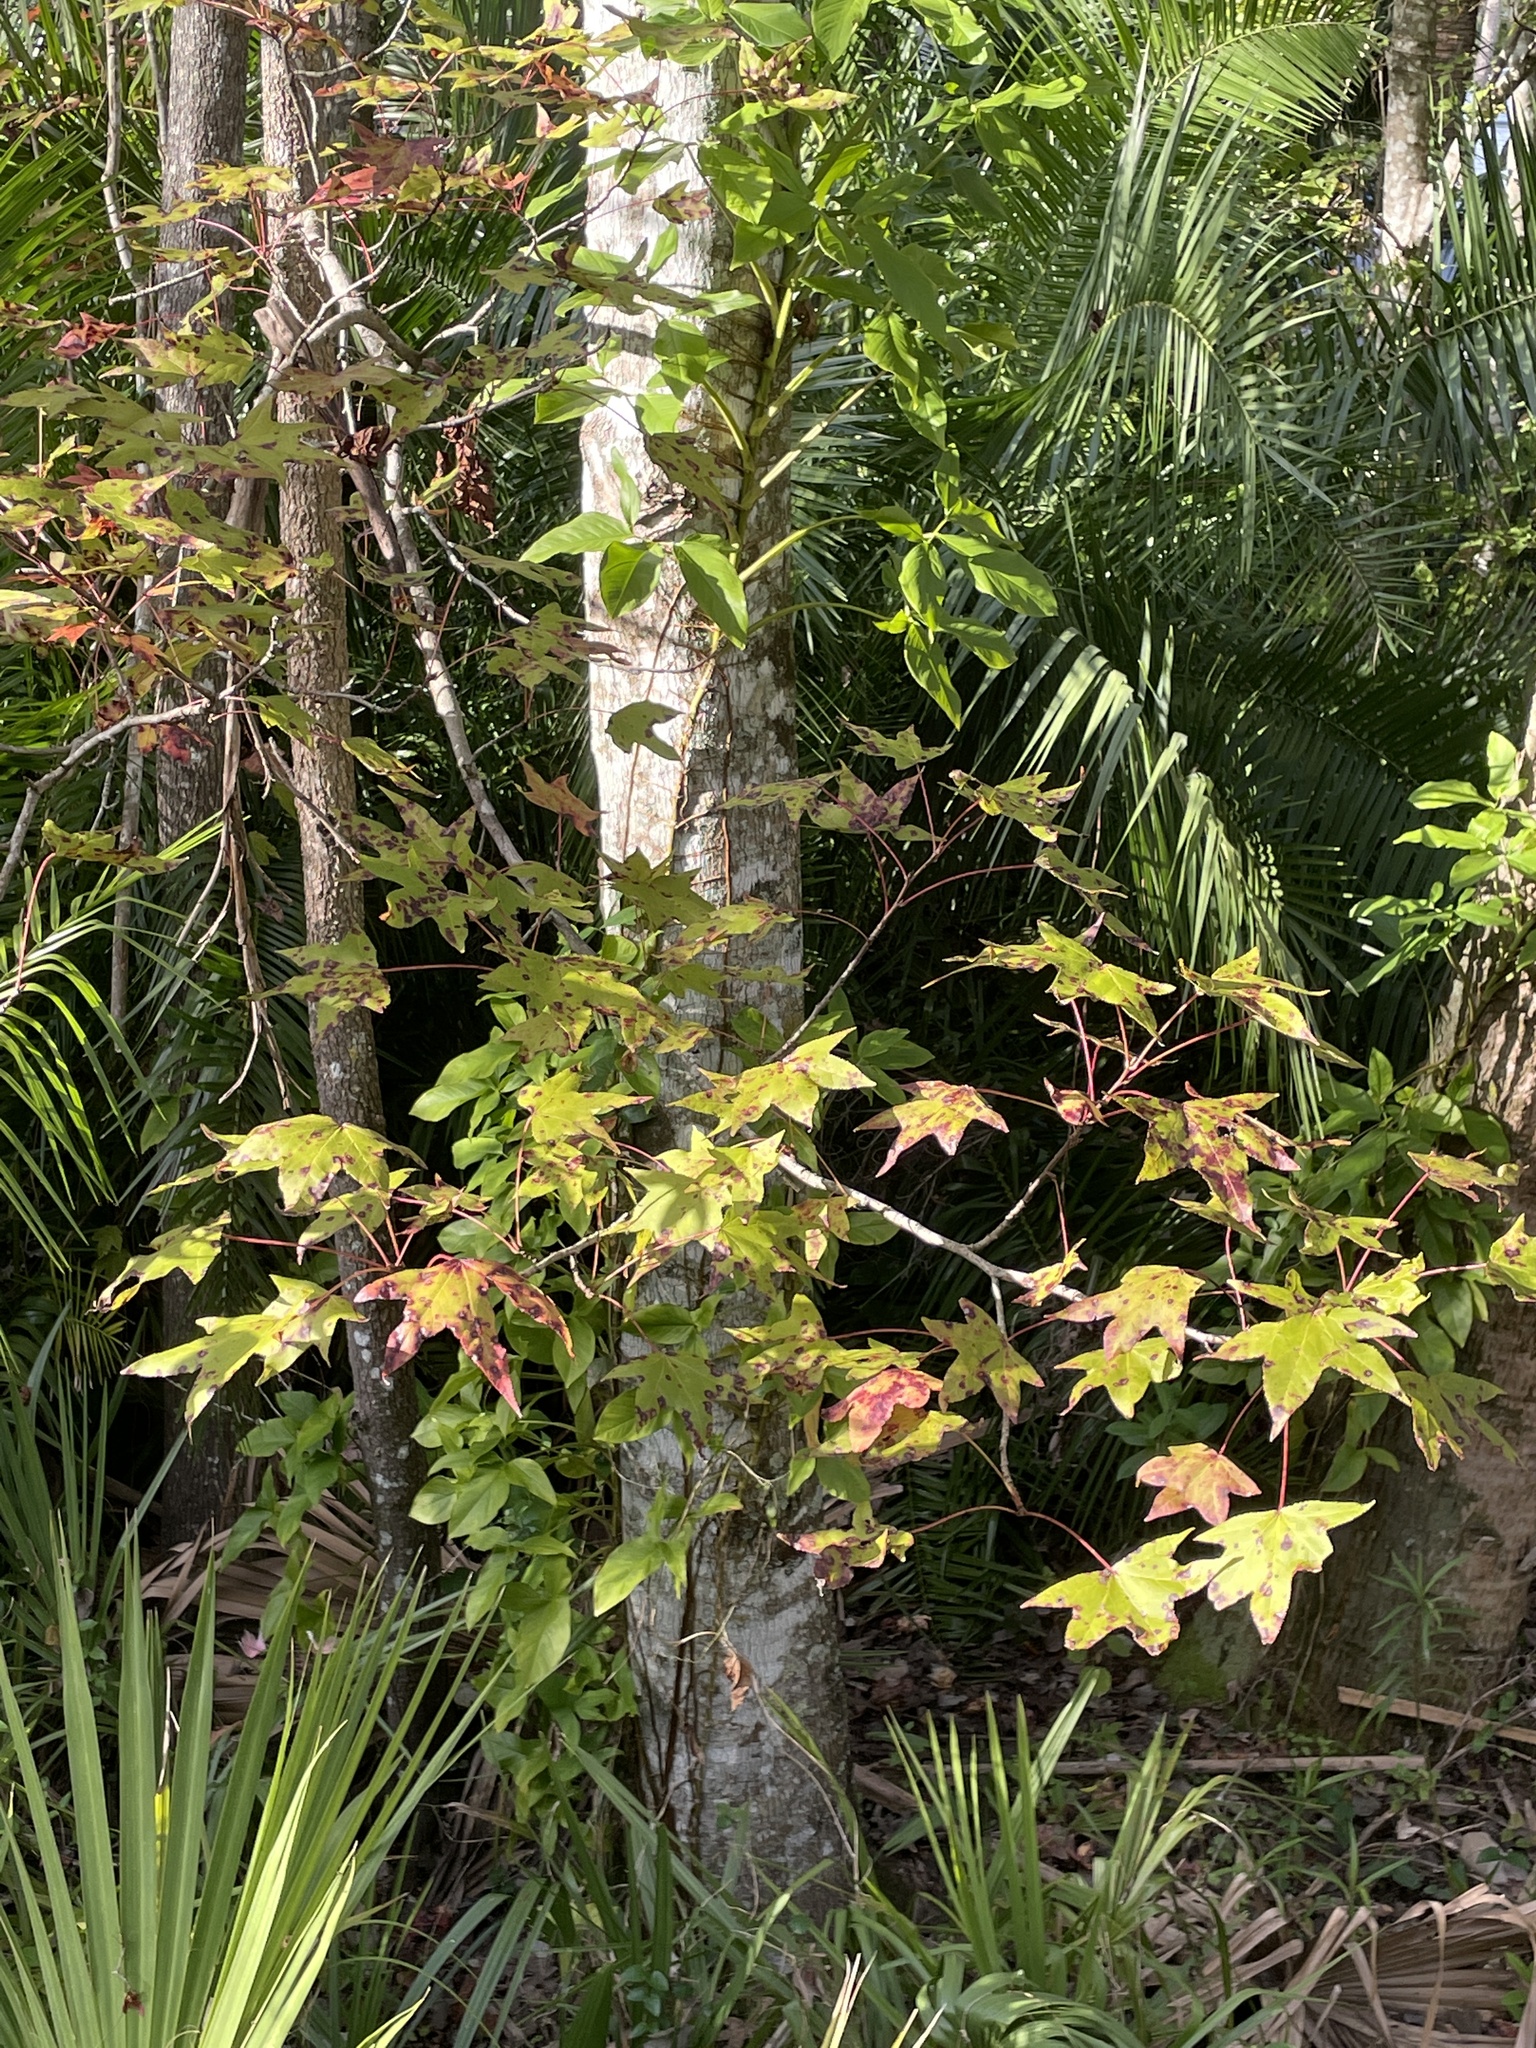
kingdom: Plantae
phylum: Tracheophyta
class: Magnoliopsida
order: Saxifragales
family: Altingiaceae
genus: Liquidambar
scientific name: Liquidambar styraciflua
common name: Sweet gum
